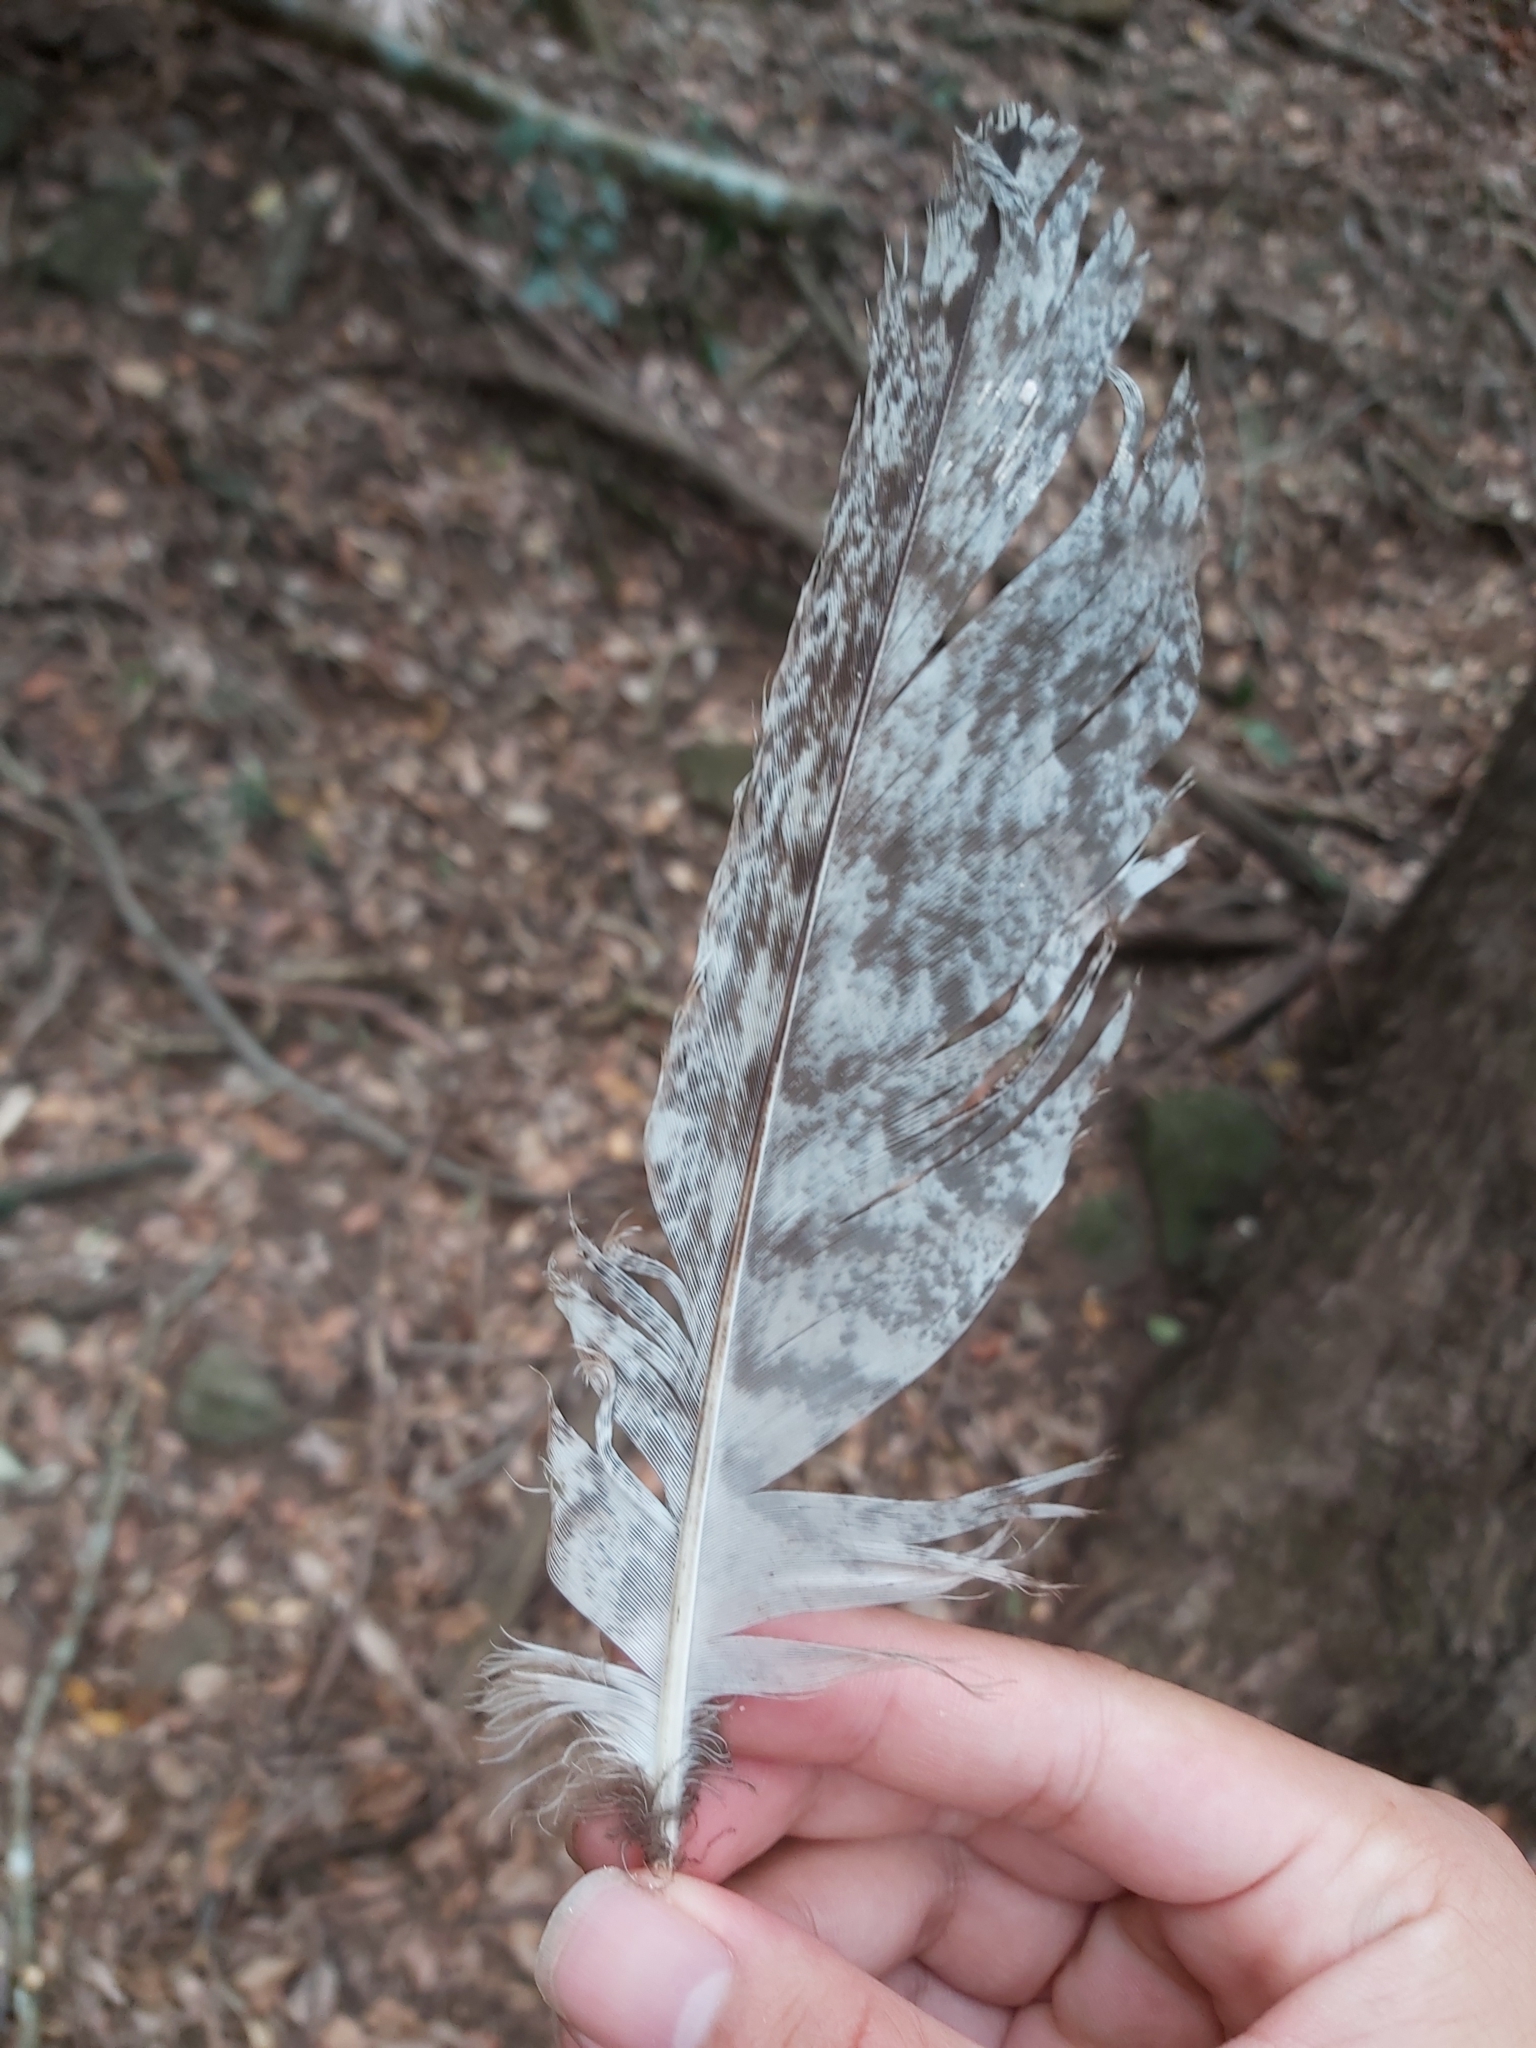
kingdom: Animalia
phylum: Chordata
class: Aves
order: Caprimulgiformes
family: Podargidae
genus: Podargus
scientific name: Podargus strigoides
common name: Tawny frogmouth
